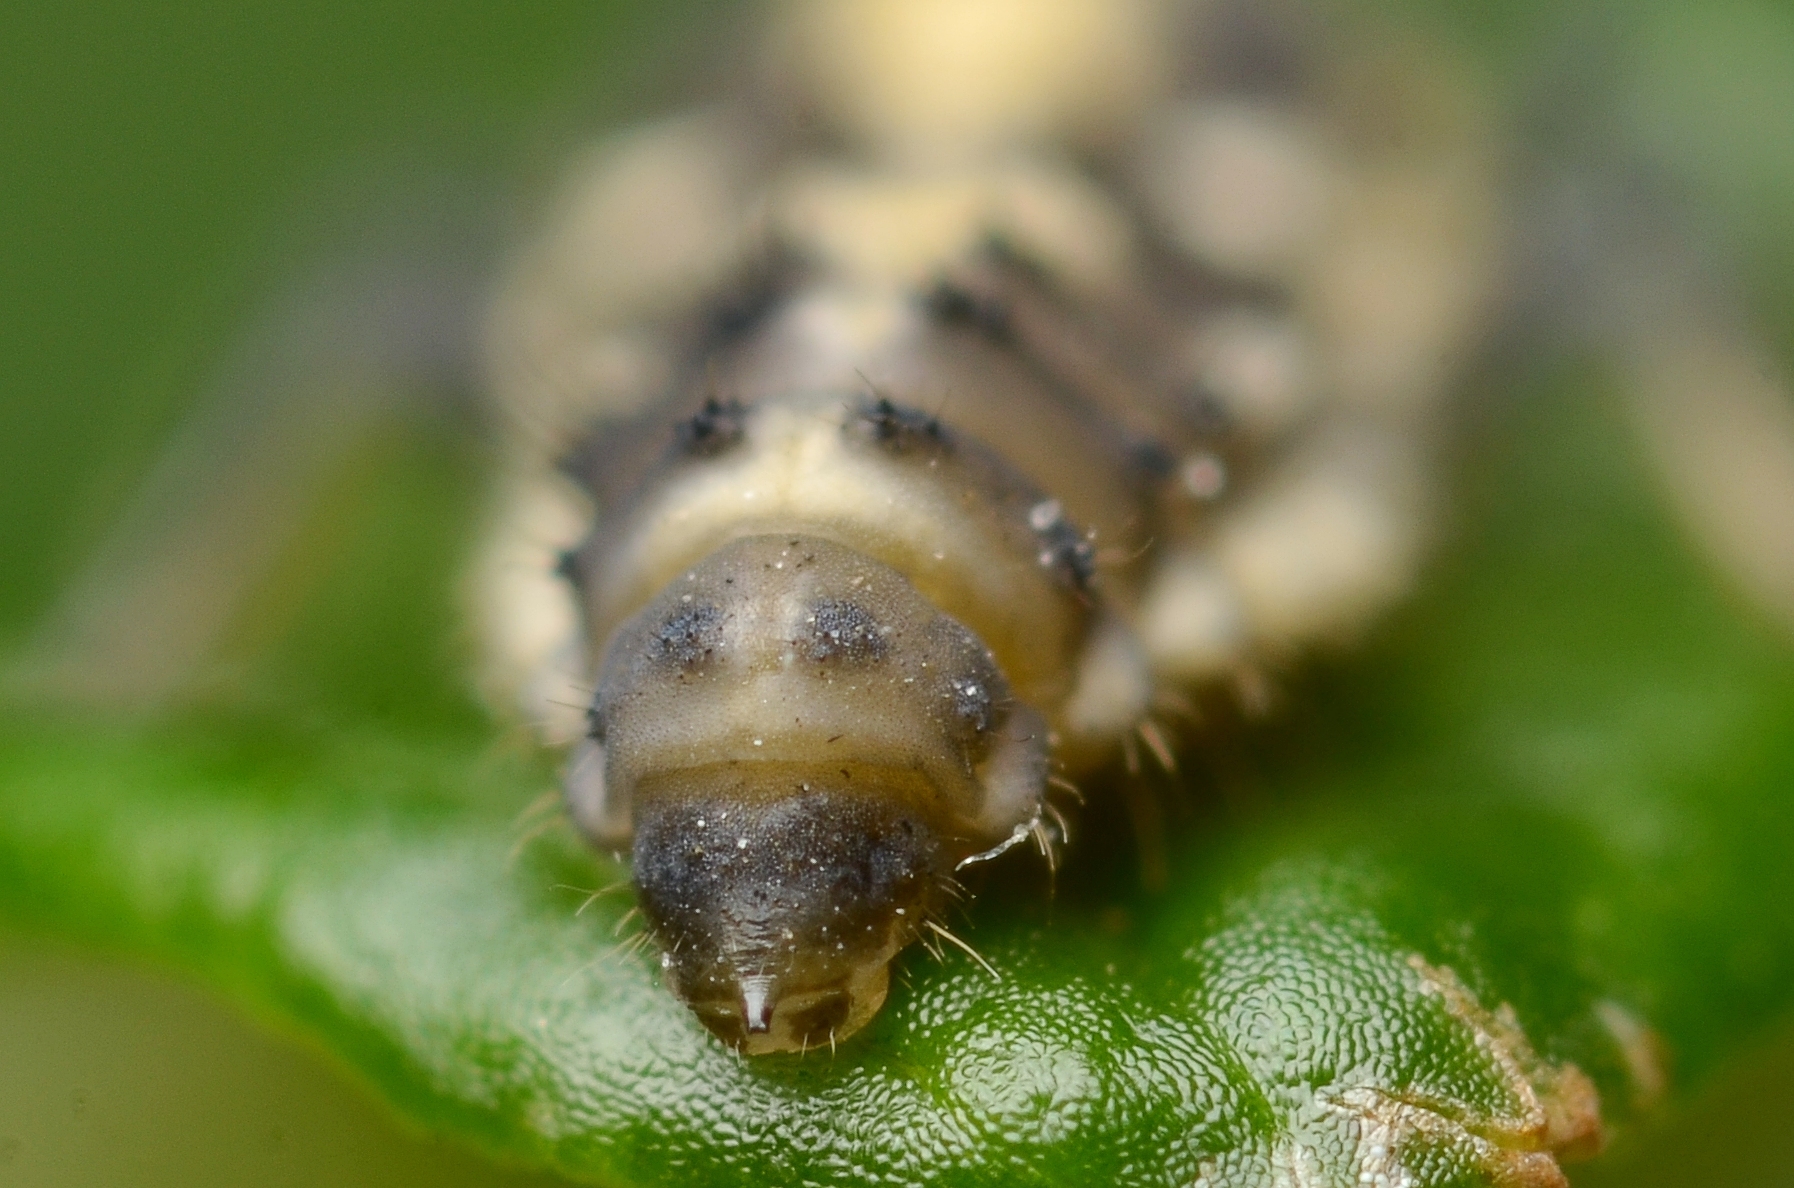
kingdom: Animalia
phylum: Arthropoda
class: Insecta
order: Coleoptera
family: Coccinellidae
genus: Propylaea
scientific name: Propylaea quatuordecimpunctata
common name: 14-spotted ladybird beetle
